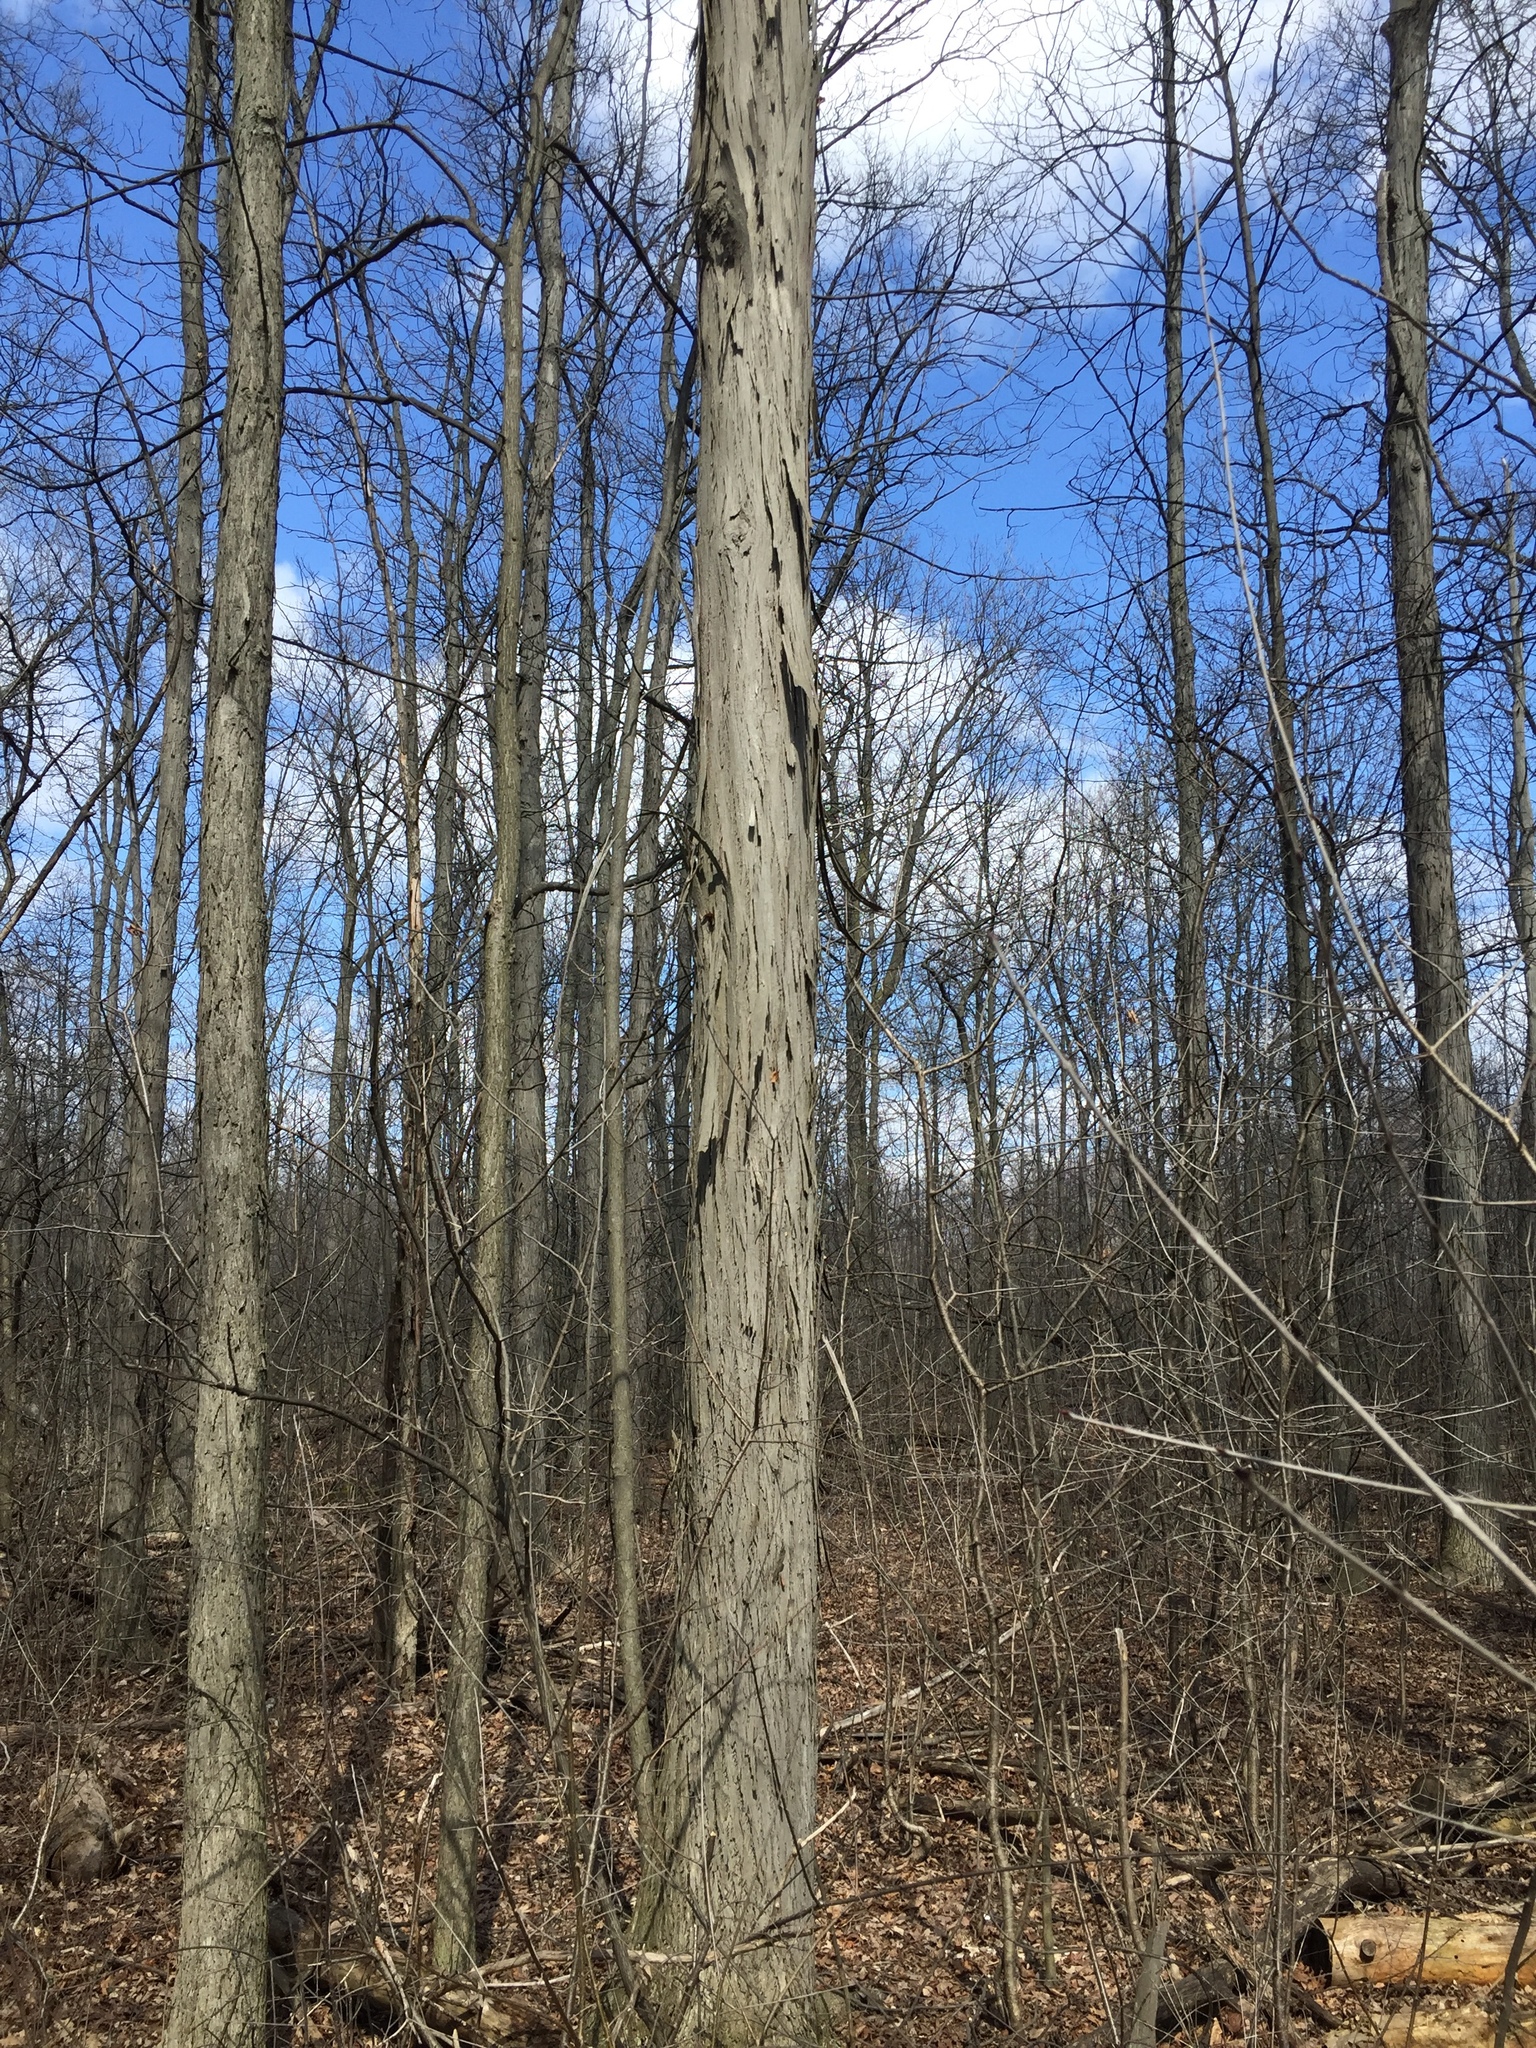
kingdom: Plantae
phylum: Tracheophyta
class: Magnoliopsida
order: Fagales
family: Juglandaceae
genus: Carya
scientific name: Carya ovata
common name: Shagbark hickory
